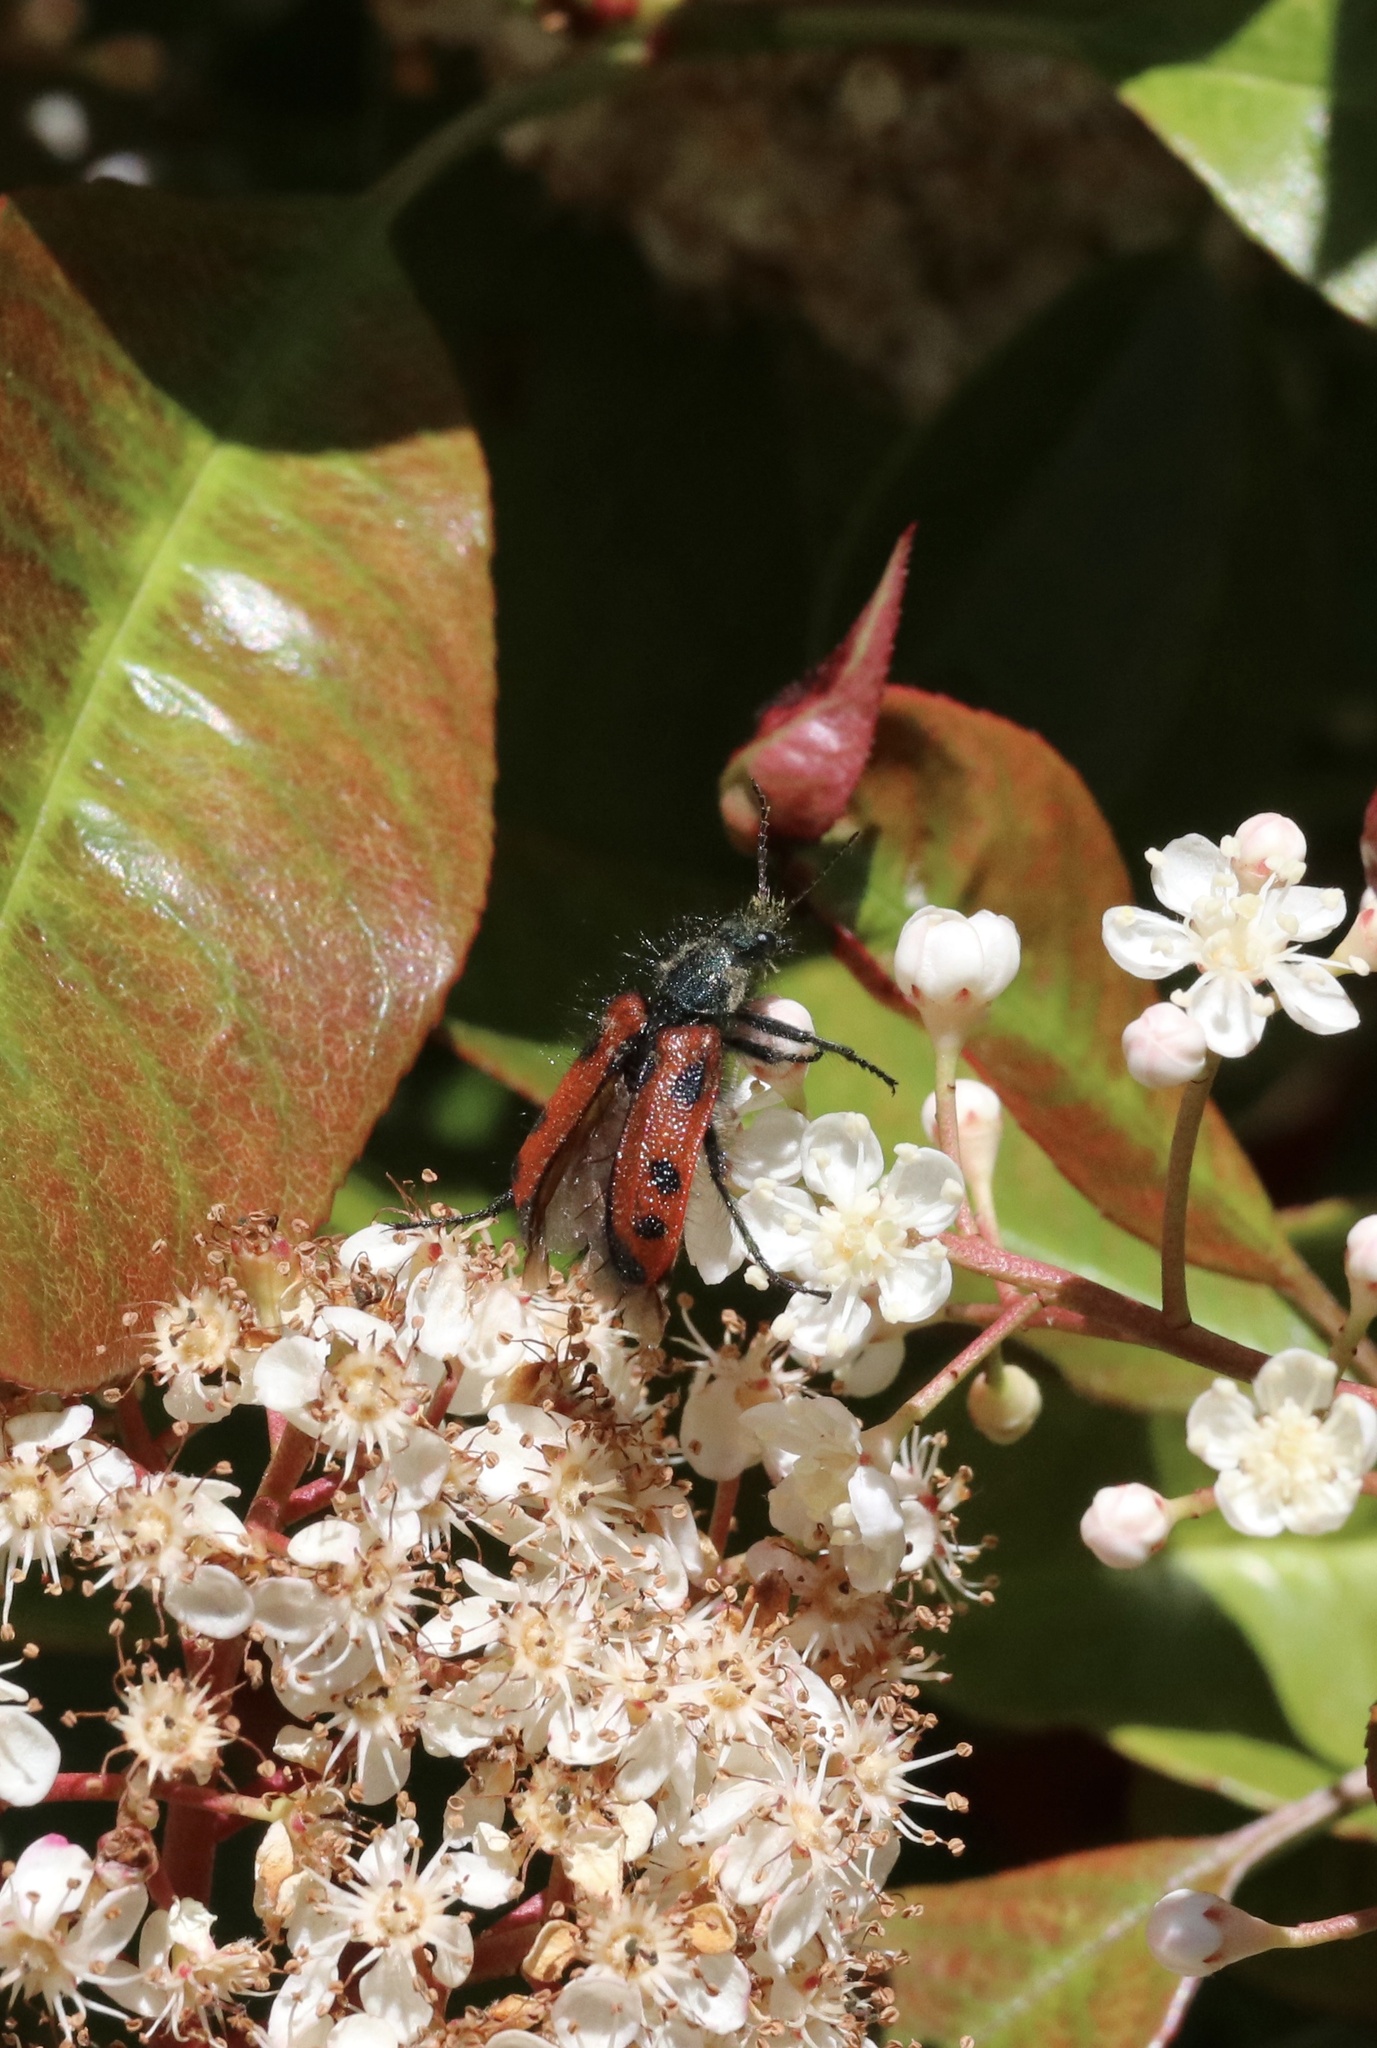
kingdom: Animalia
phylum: Arthropoda
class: Insecta
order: Coleoptera
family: Melyridae
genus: Astylus
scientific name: Astylus
